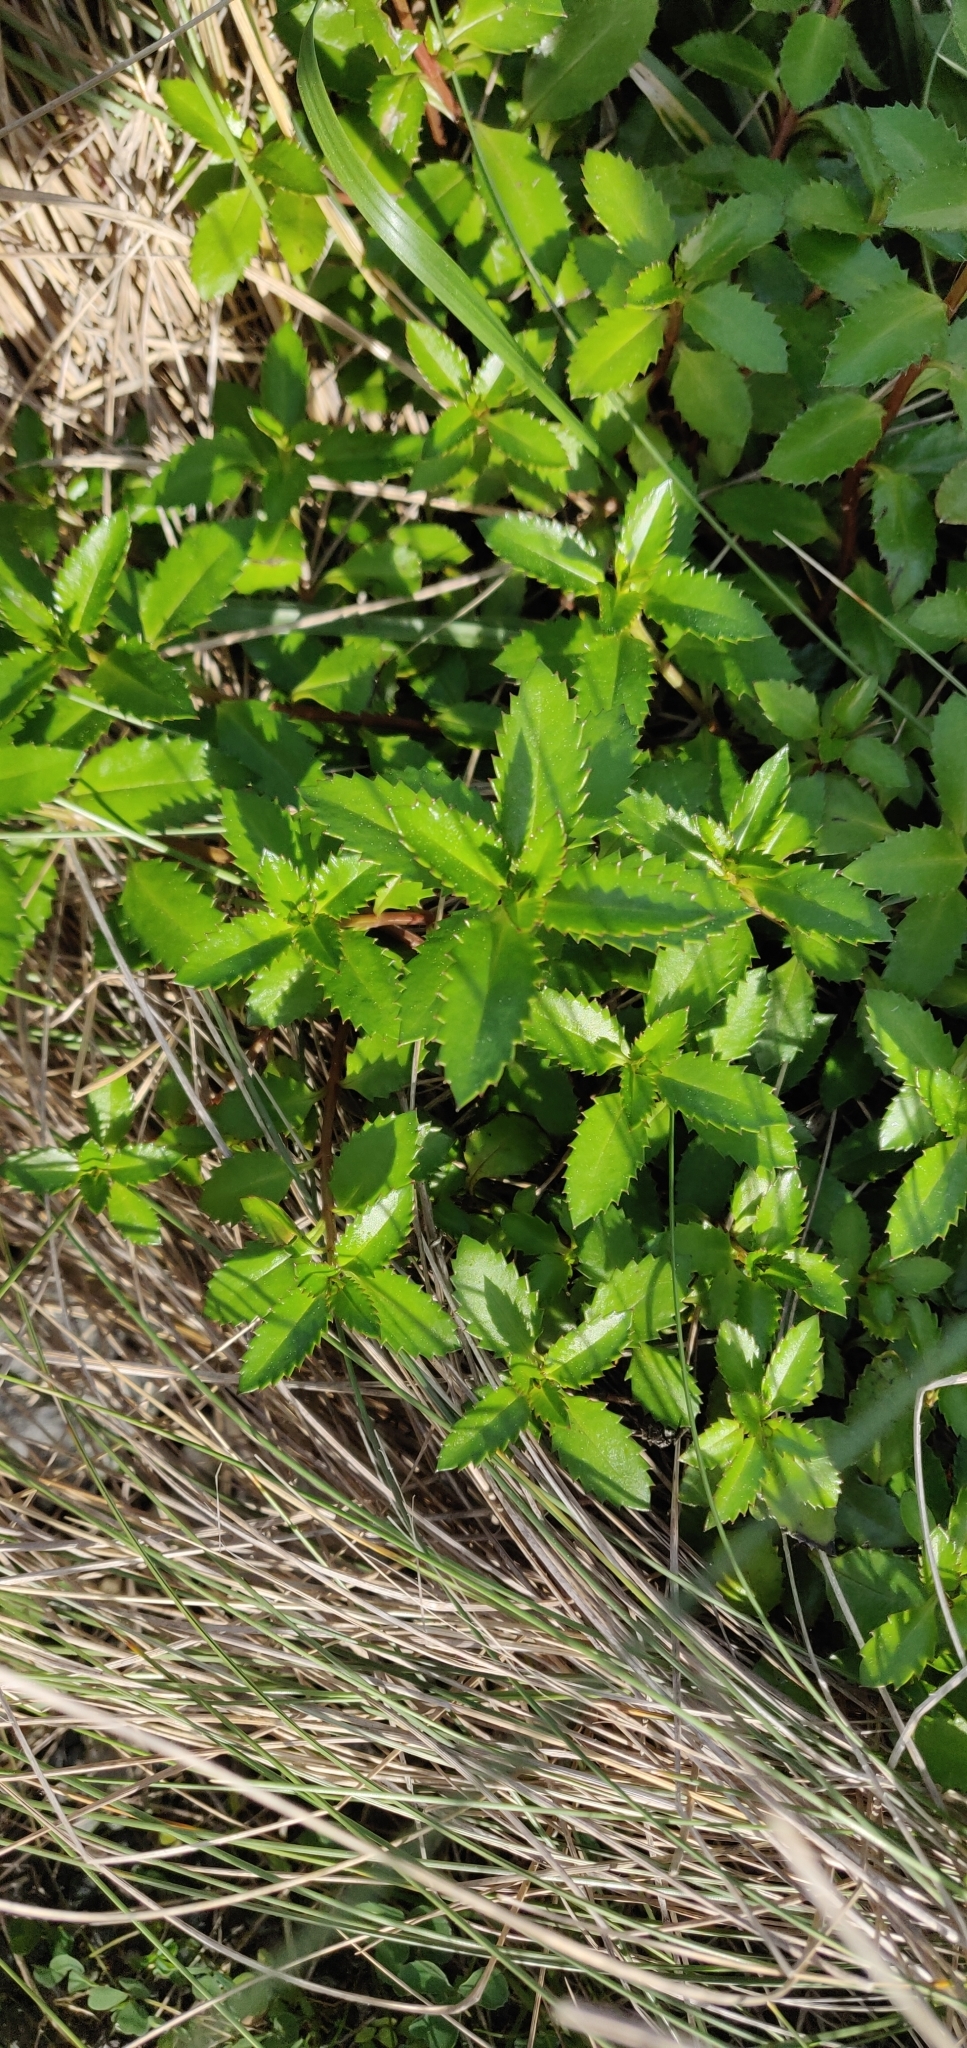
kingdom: Plantae
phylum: Tracheophyta
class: Magnoliopsida
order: Saxifragales
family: Haloragaceae
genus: Haloragis
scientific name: Haloragis erecta
